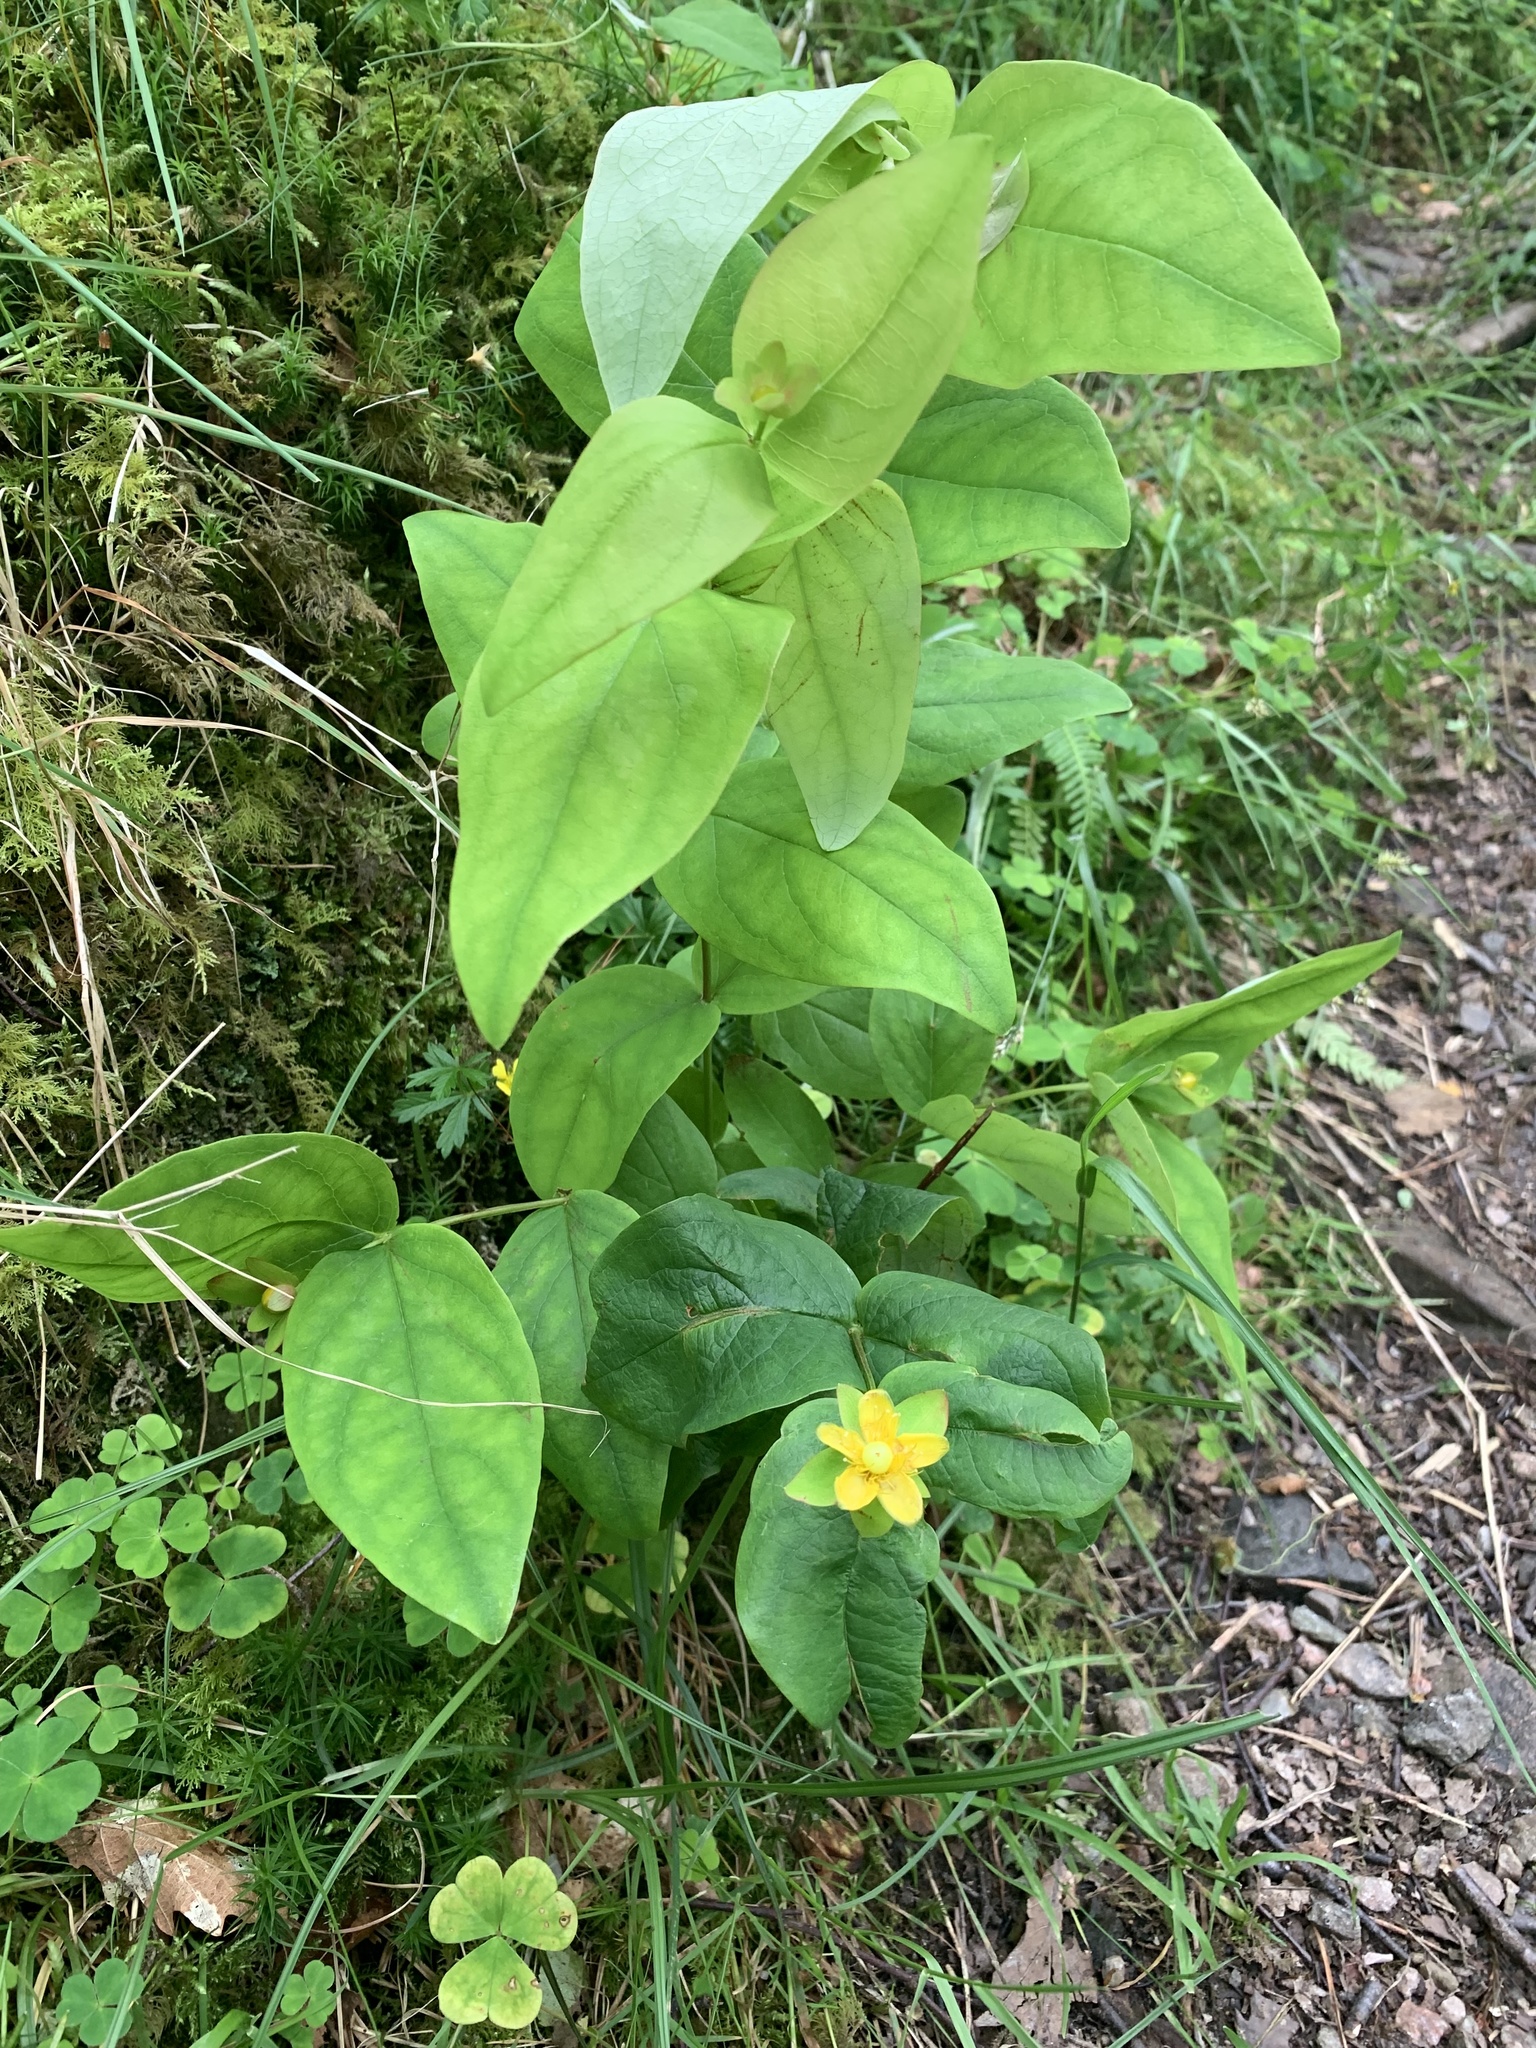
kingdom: Plantae
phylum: Tracheophyta
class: Magnoliopsida
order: Malpighiales
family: Hypericaceae
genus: Hypericum
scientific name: Hypericum androsaemum
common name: Sweet-amber
